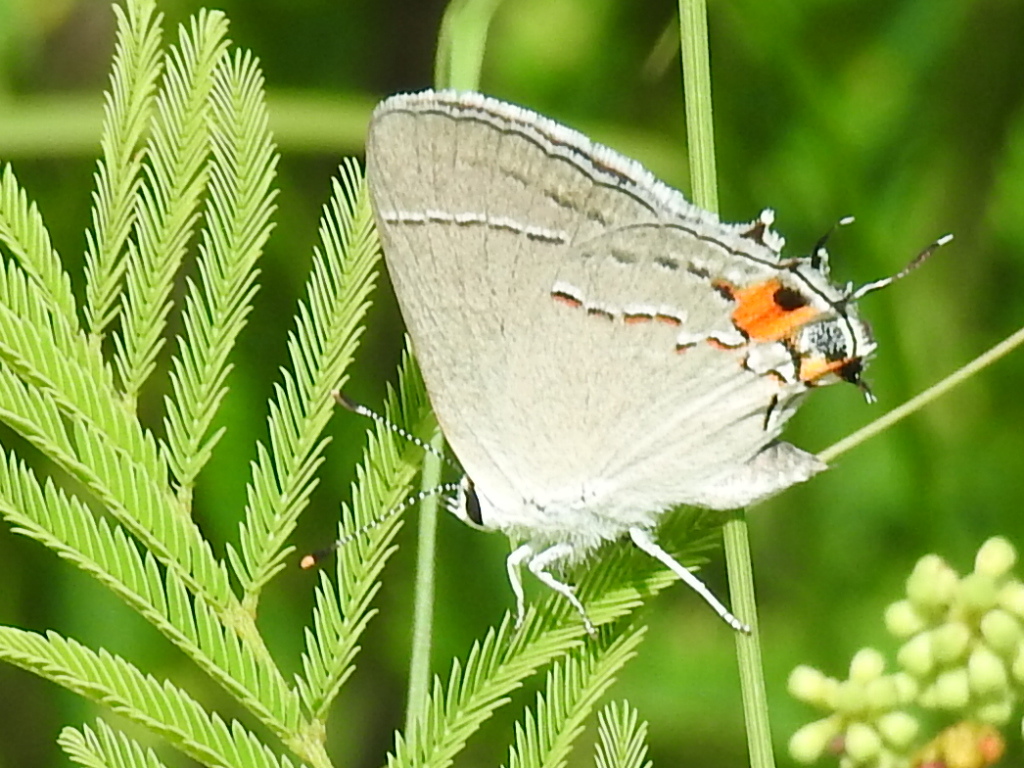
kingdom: Animalia
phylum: Arthropoda
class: Insecta
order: Lepidoptera
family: Lycaenidae
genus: Strymon
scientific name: Strymon melinus
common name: Gray hairstreak
